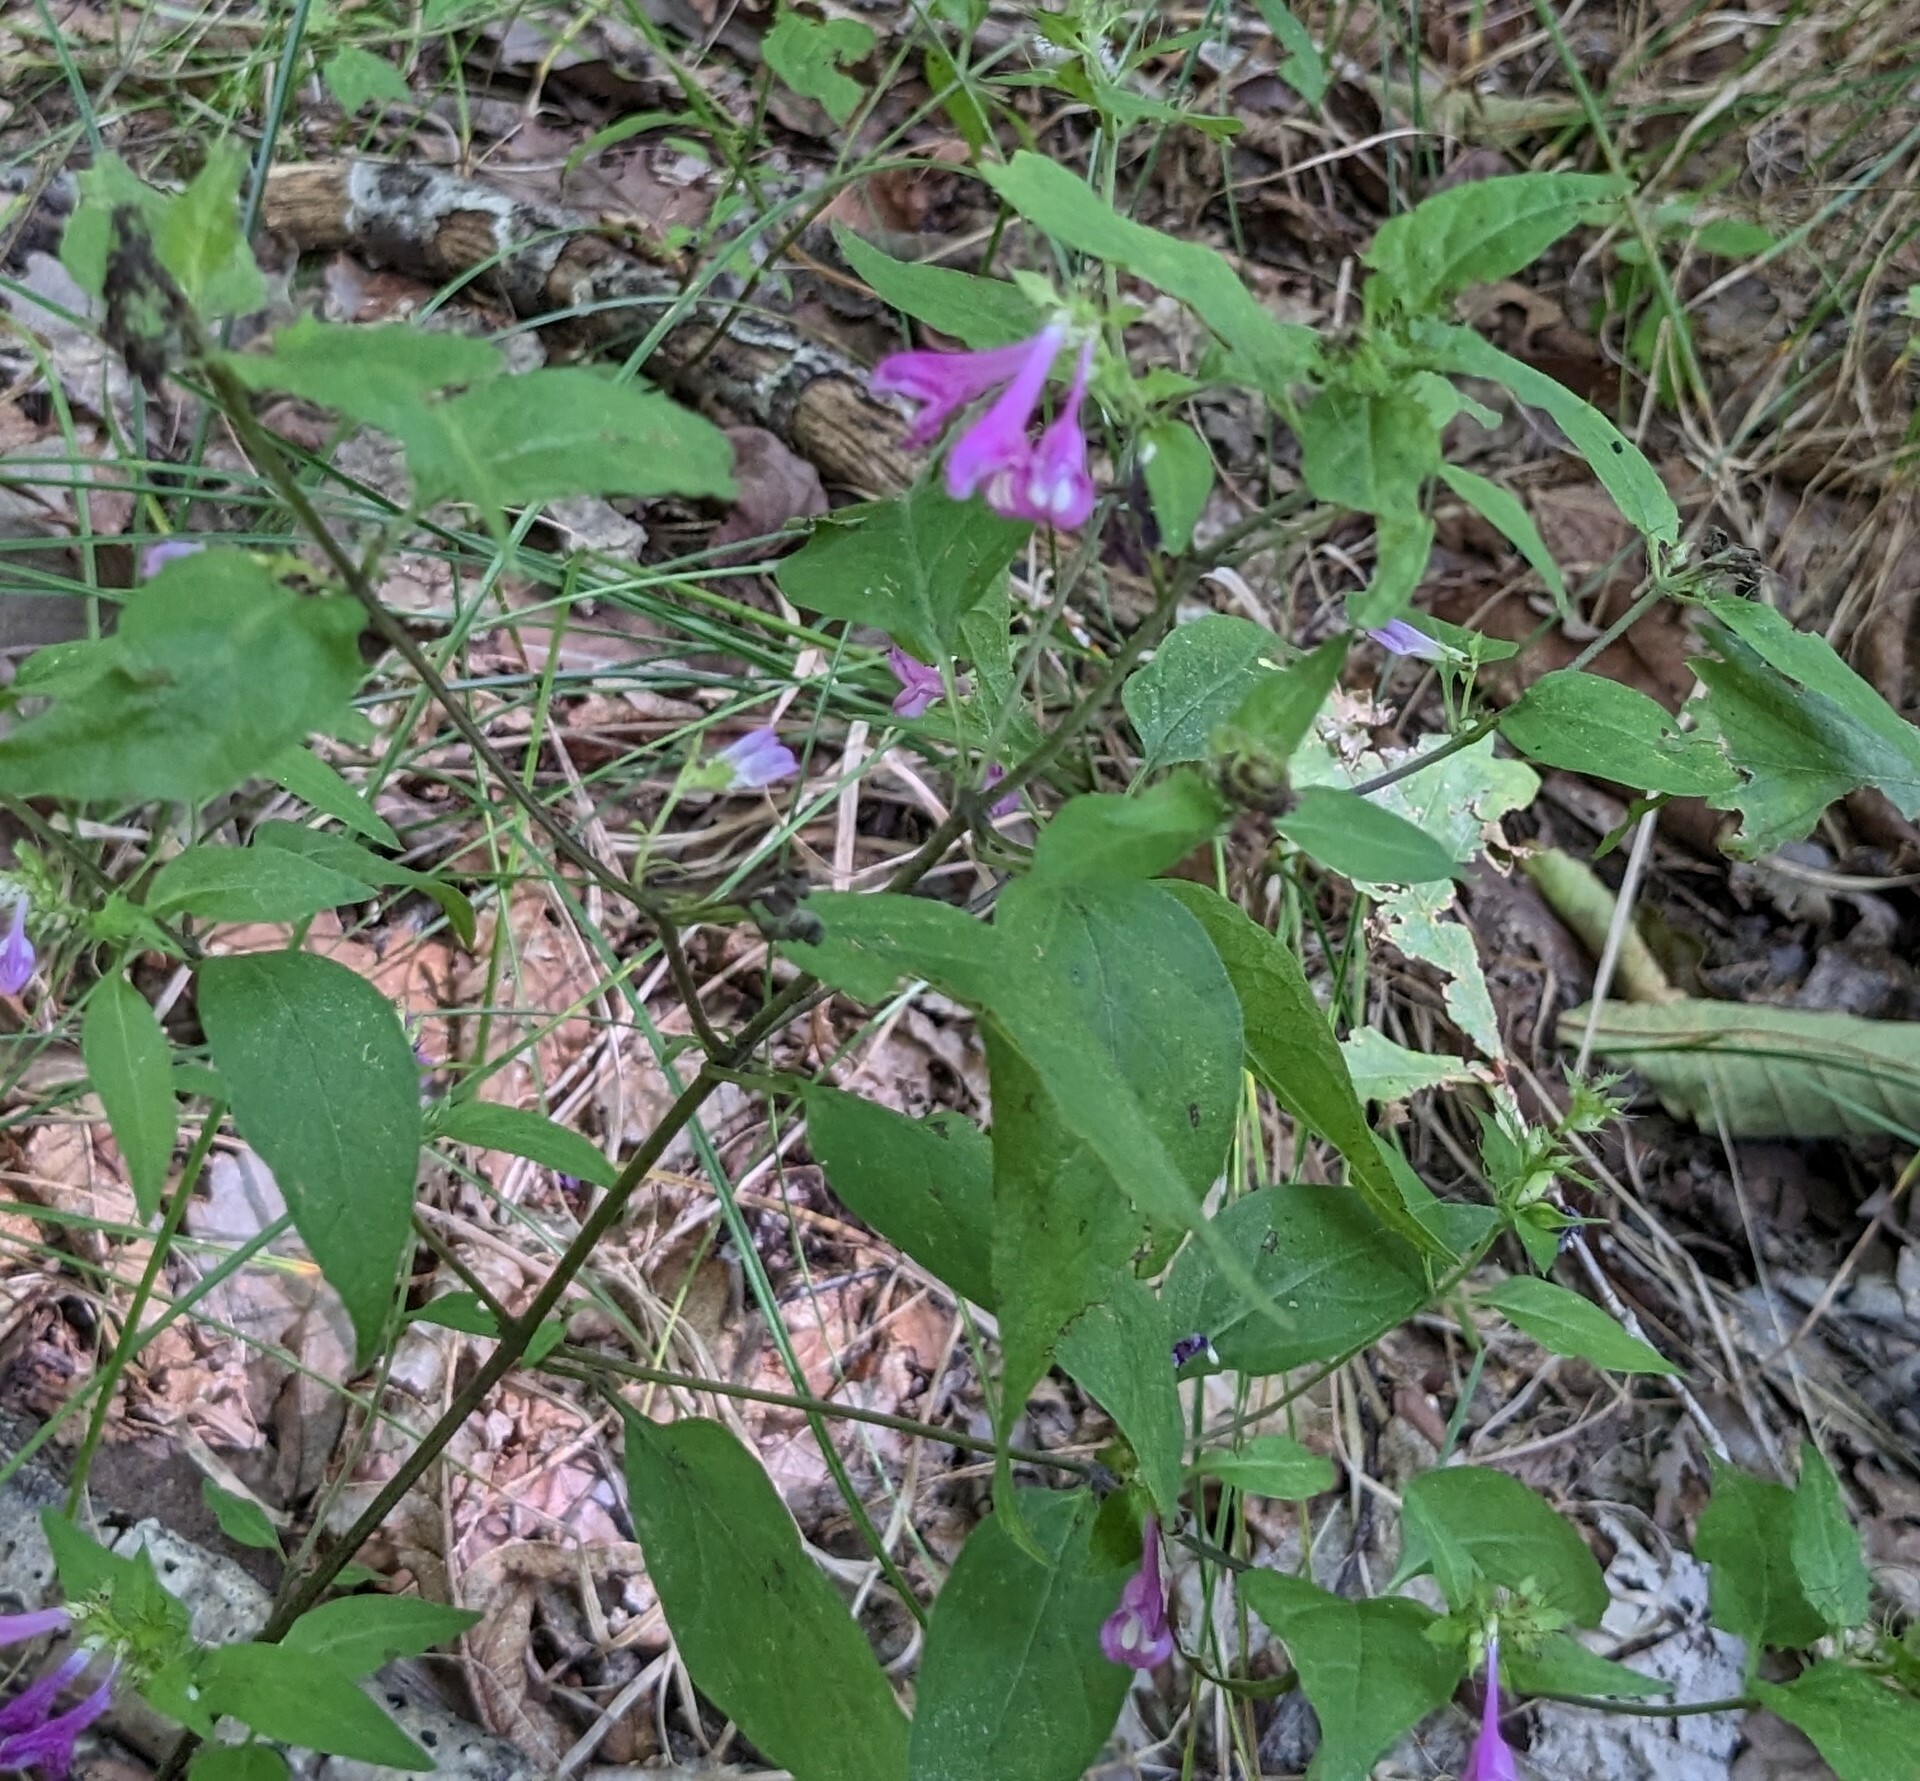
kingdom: Plantae
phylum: Tracheophyta
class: Magnoliopsida
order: Lamiales
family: Orobanchaceae
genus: Melampyrum
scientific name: Melampyrum roseum
